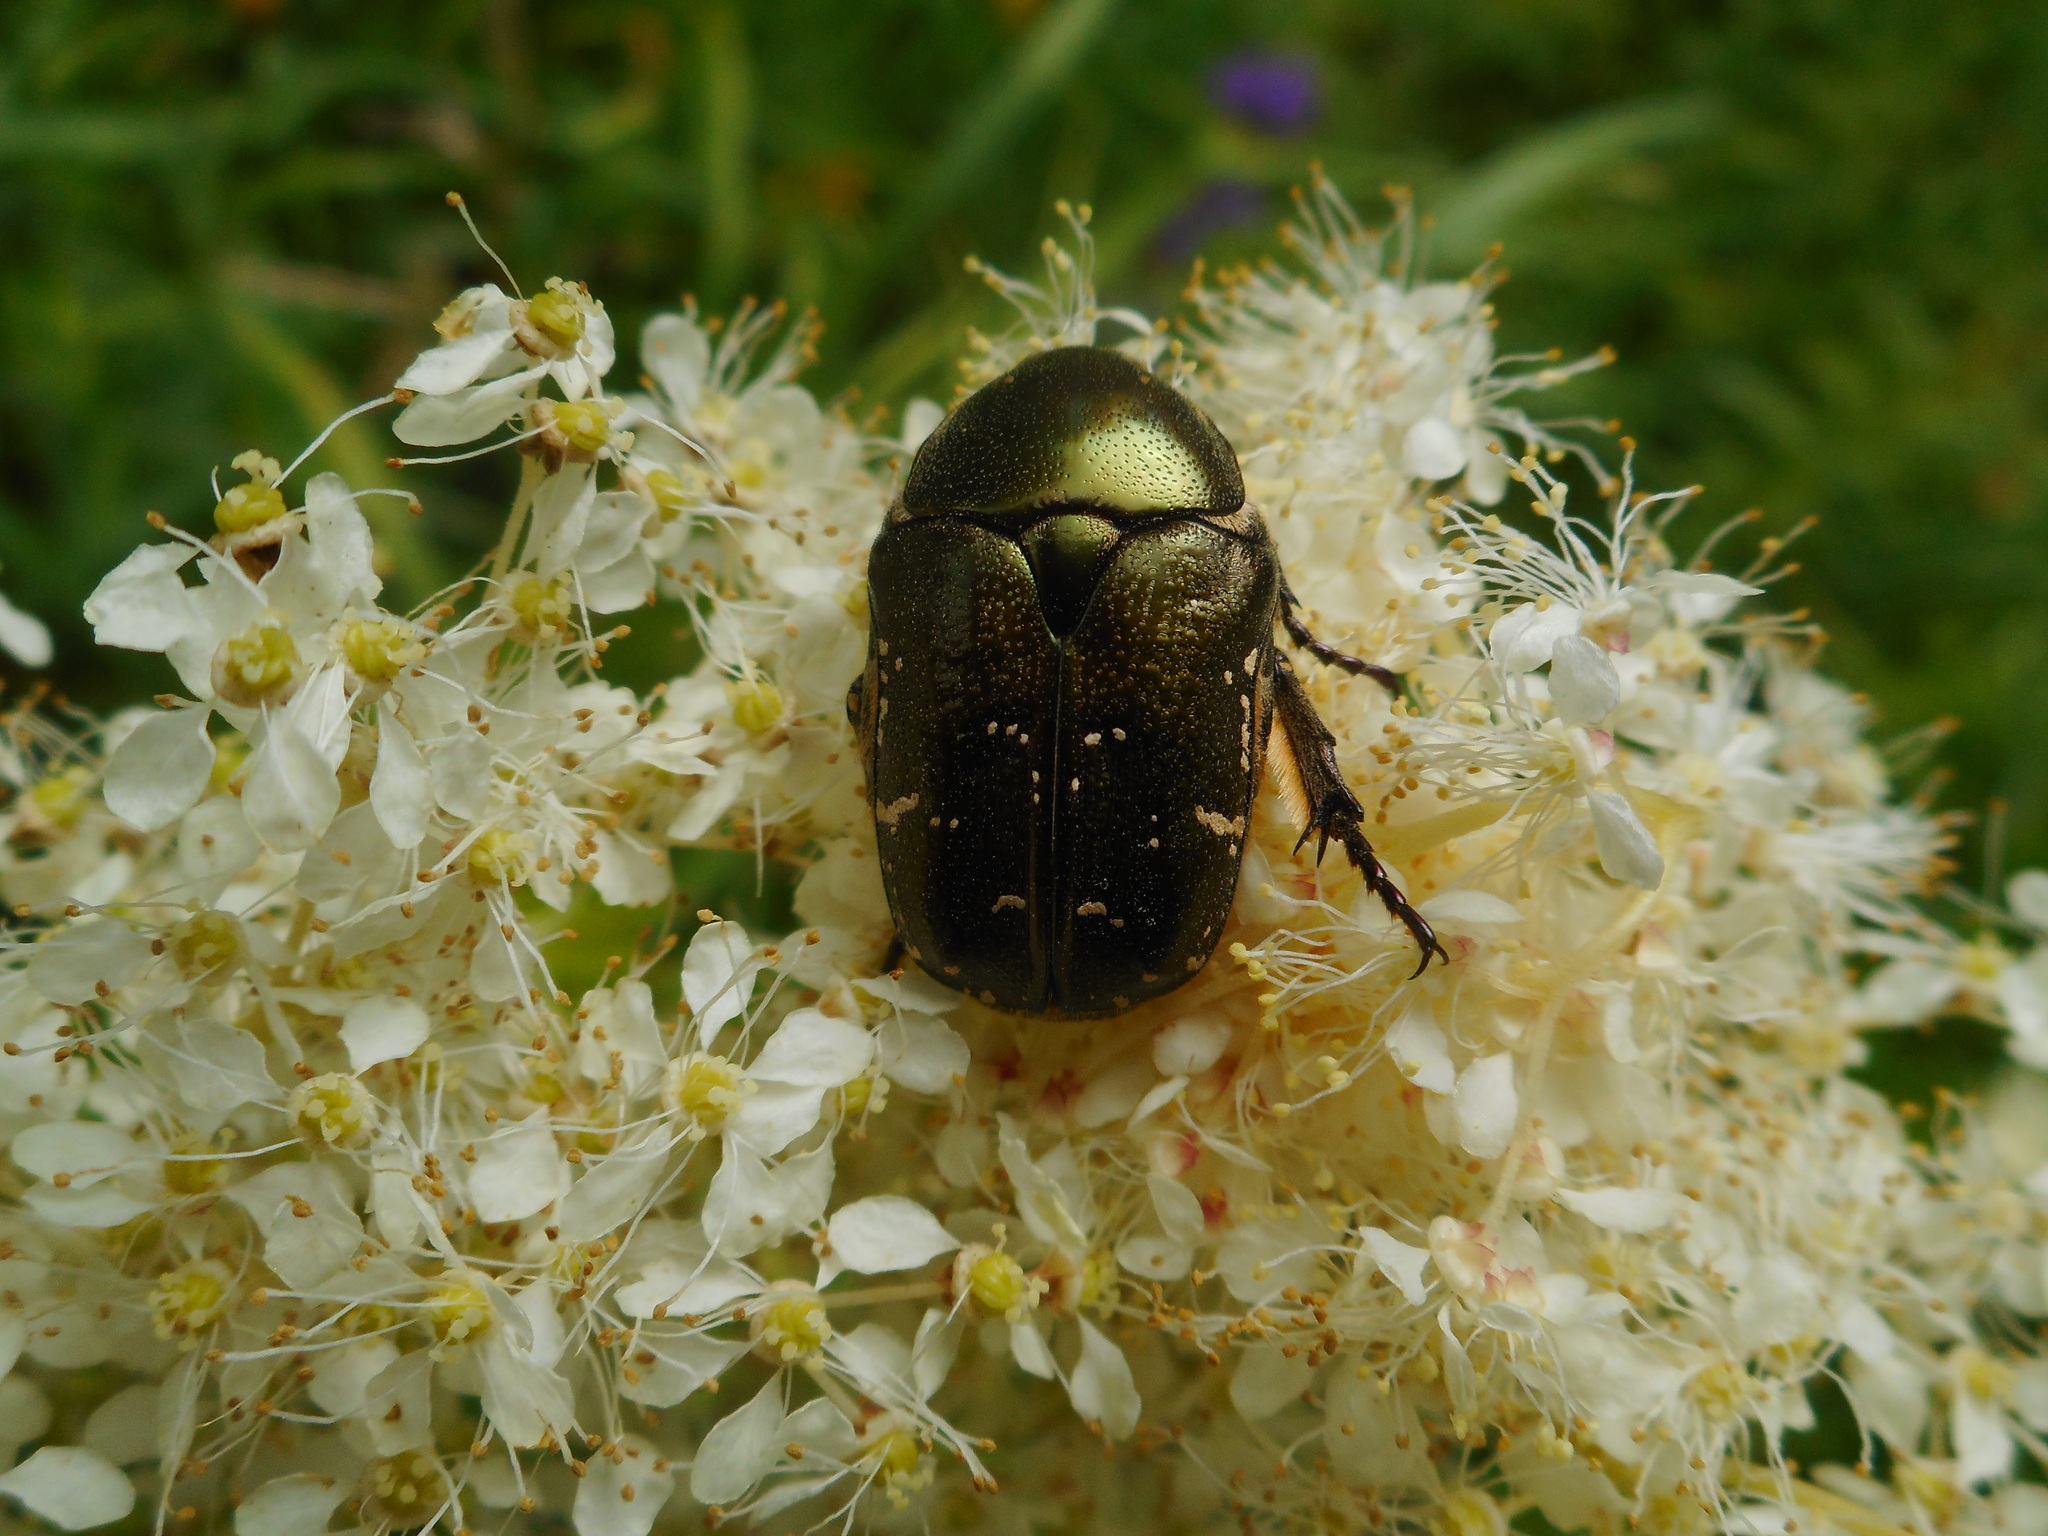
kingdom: Animalia
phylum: Arthropoda
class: Insecta
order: Coleoptera
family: Scarabaeidae
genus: Protaetia
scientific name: Protaetia cuprea
